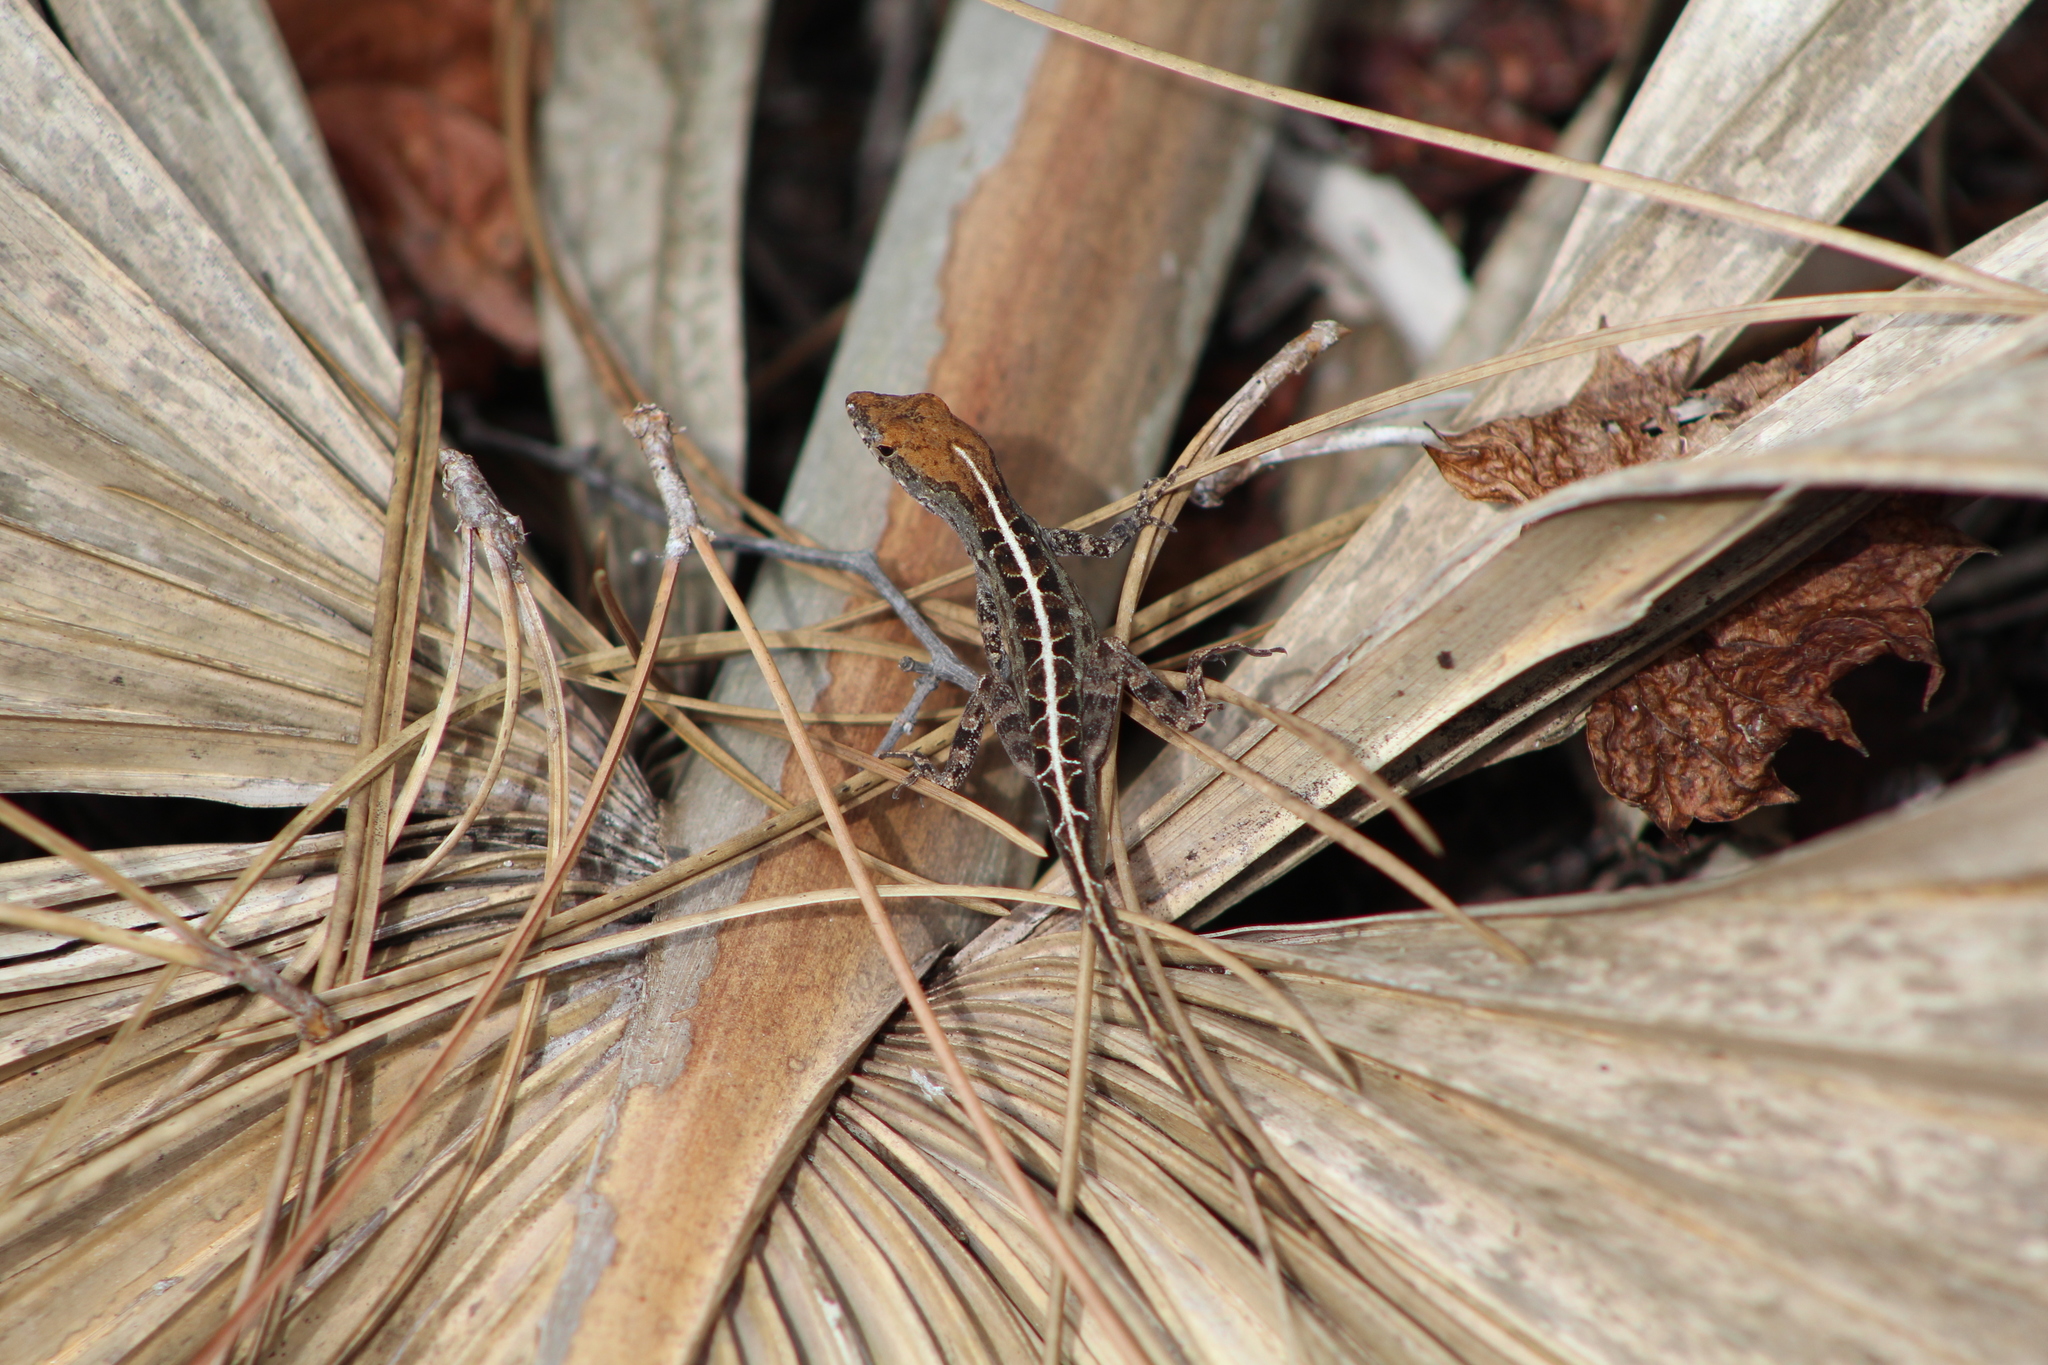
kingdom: Animalia
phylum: Chordata
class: Squamata
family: Dactyloidae
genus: Anolis
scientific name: Anolis sagrei
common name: Brown anole
